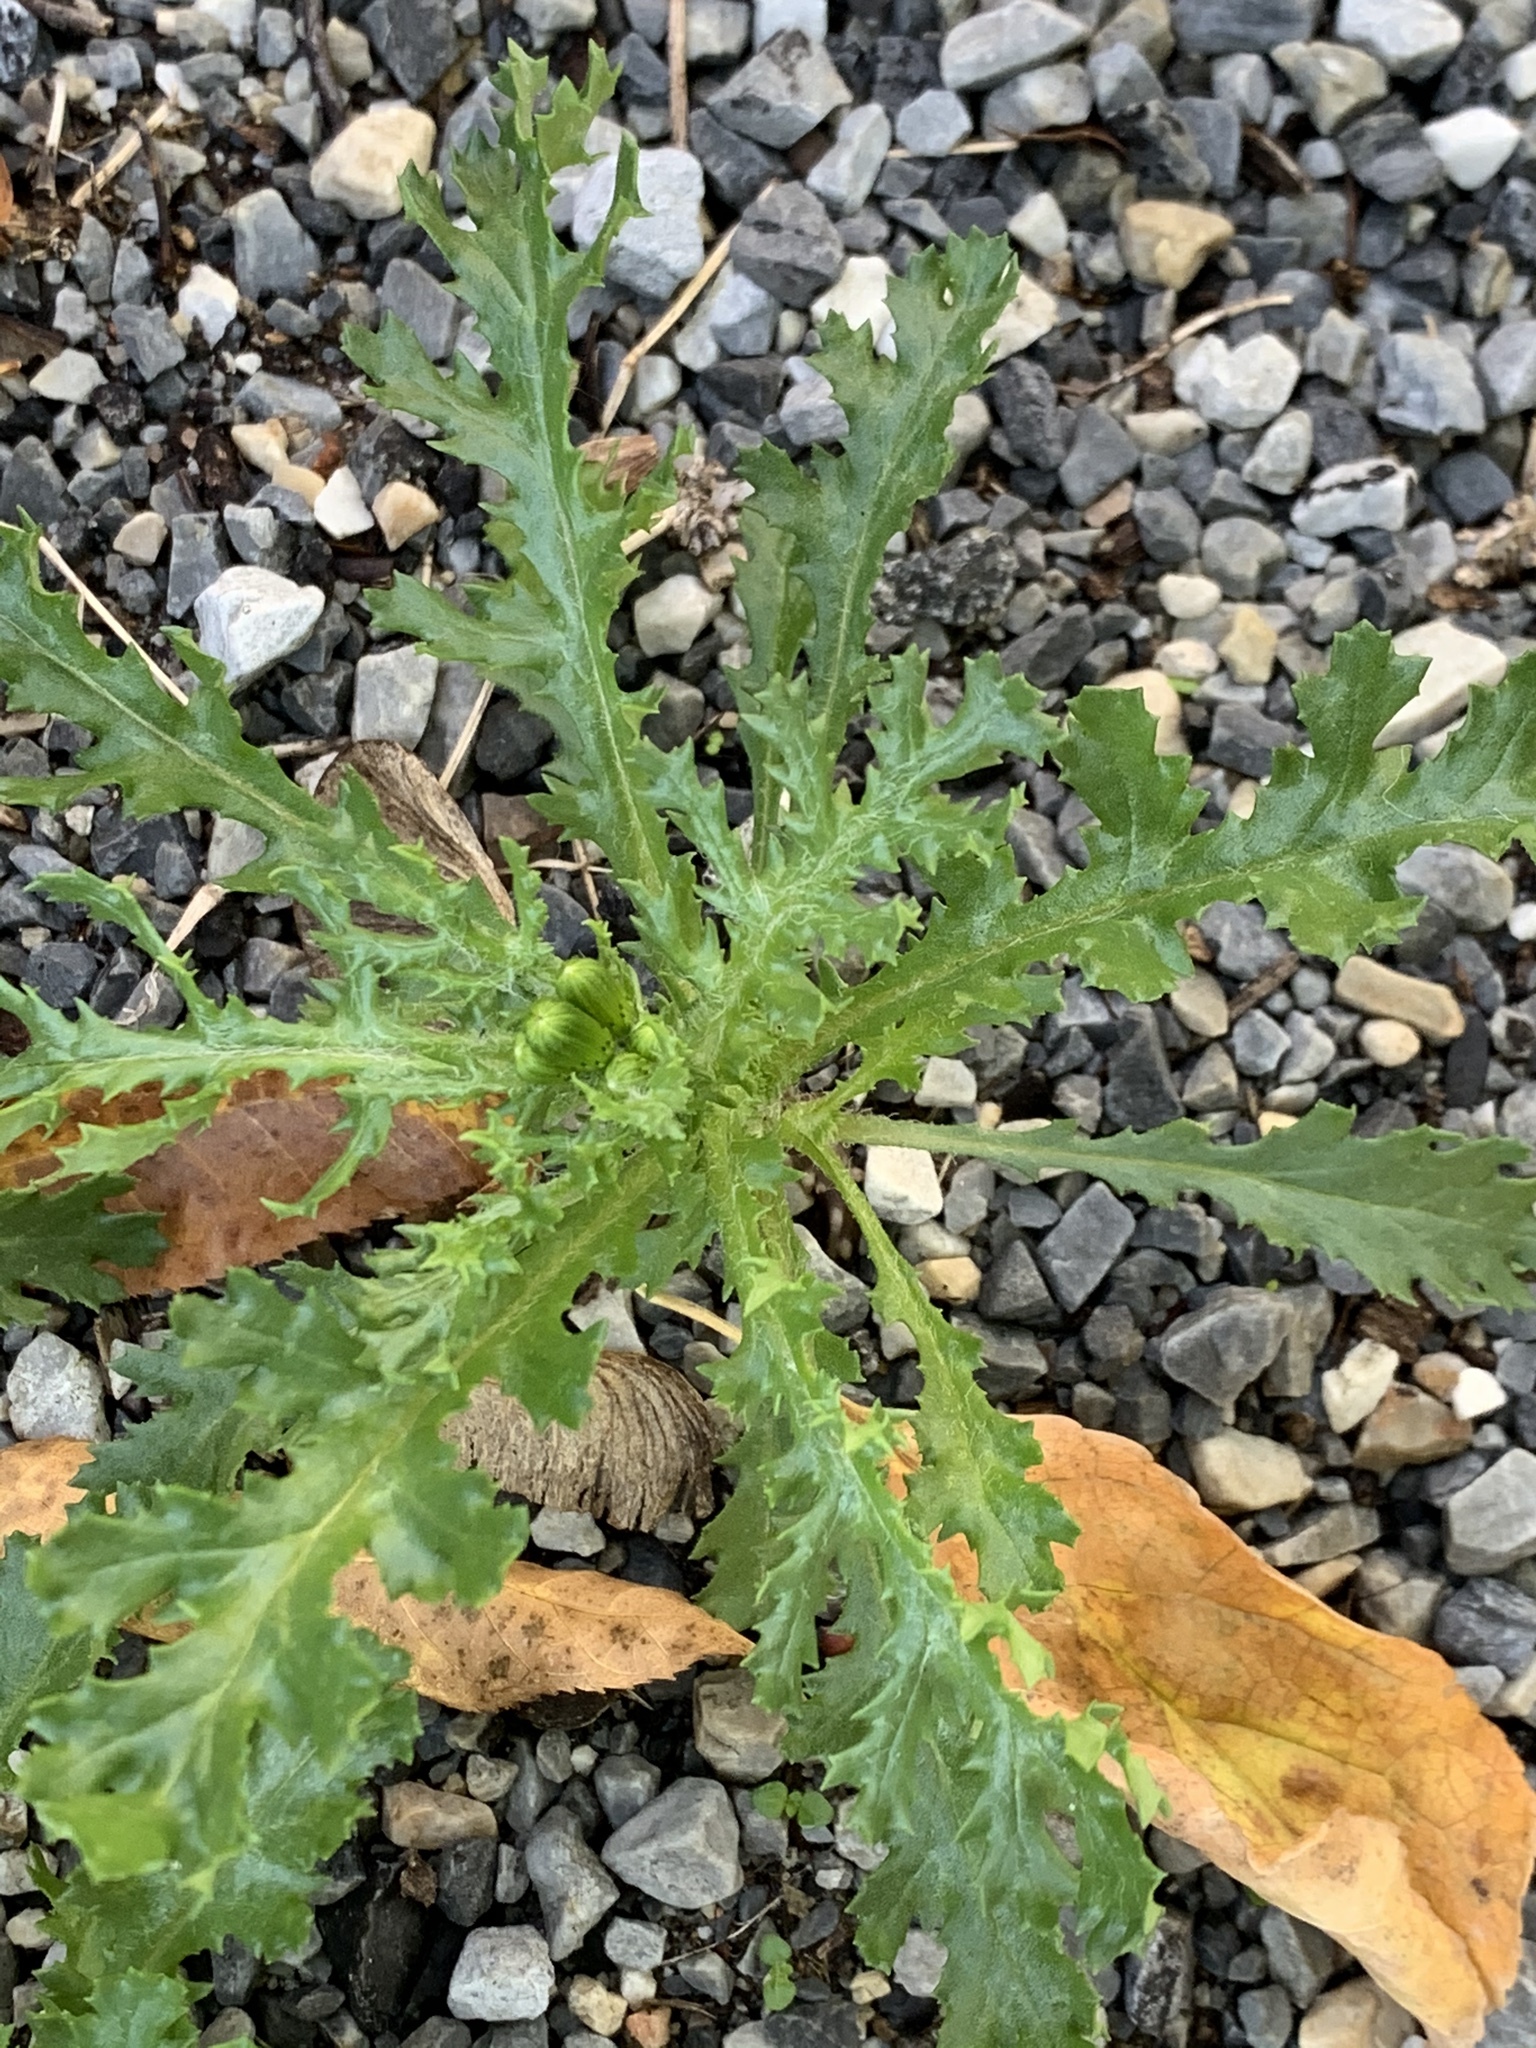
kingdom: Plantae
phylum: Tracheophyta
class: Magnoliopsida
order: Asterales
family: Asteraceae
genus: Senecio
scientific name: Senecio vulgaris
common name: Old-man-in-the-spring
